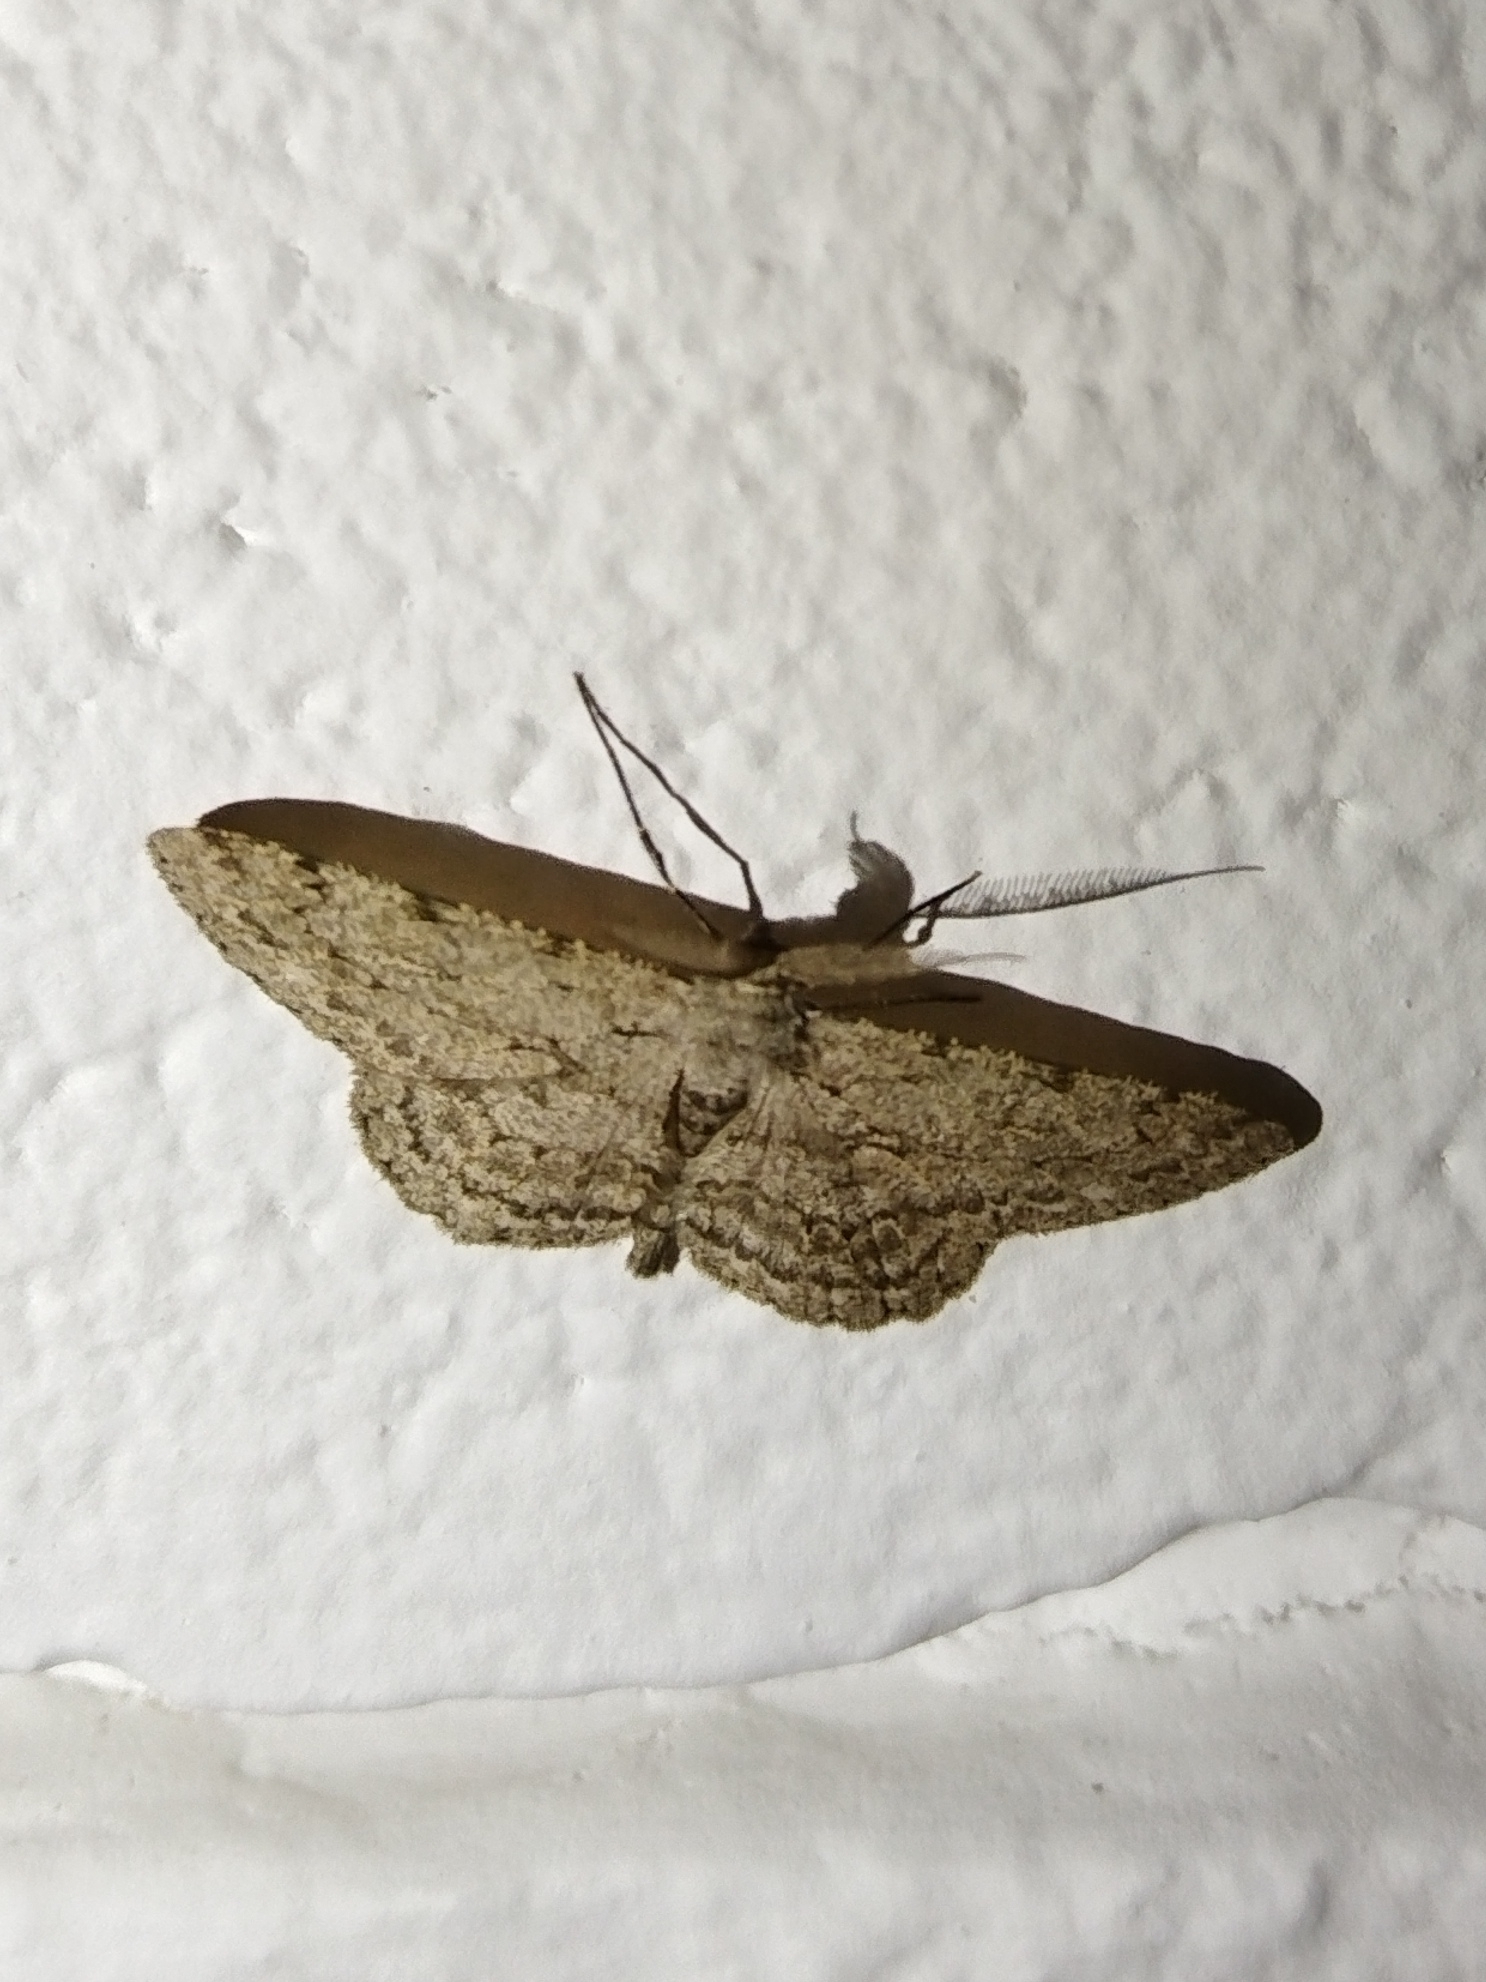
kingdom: Animalia
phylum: Arthropoda
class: Insecta
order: Lepidoptera
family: Geometridae
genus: Hypomecis
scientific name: Hypomecis punctinalis
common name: Pale oak beauty
